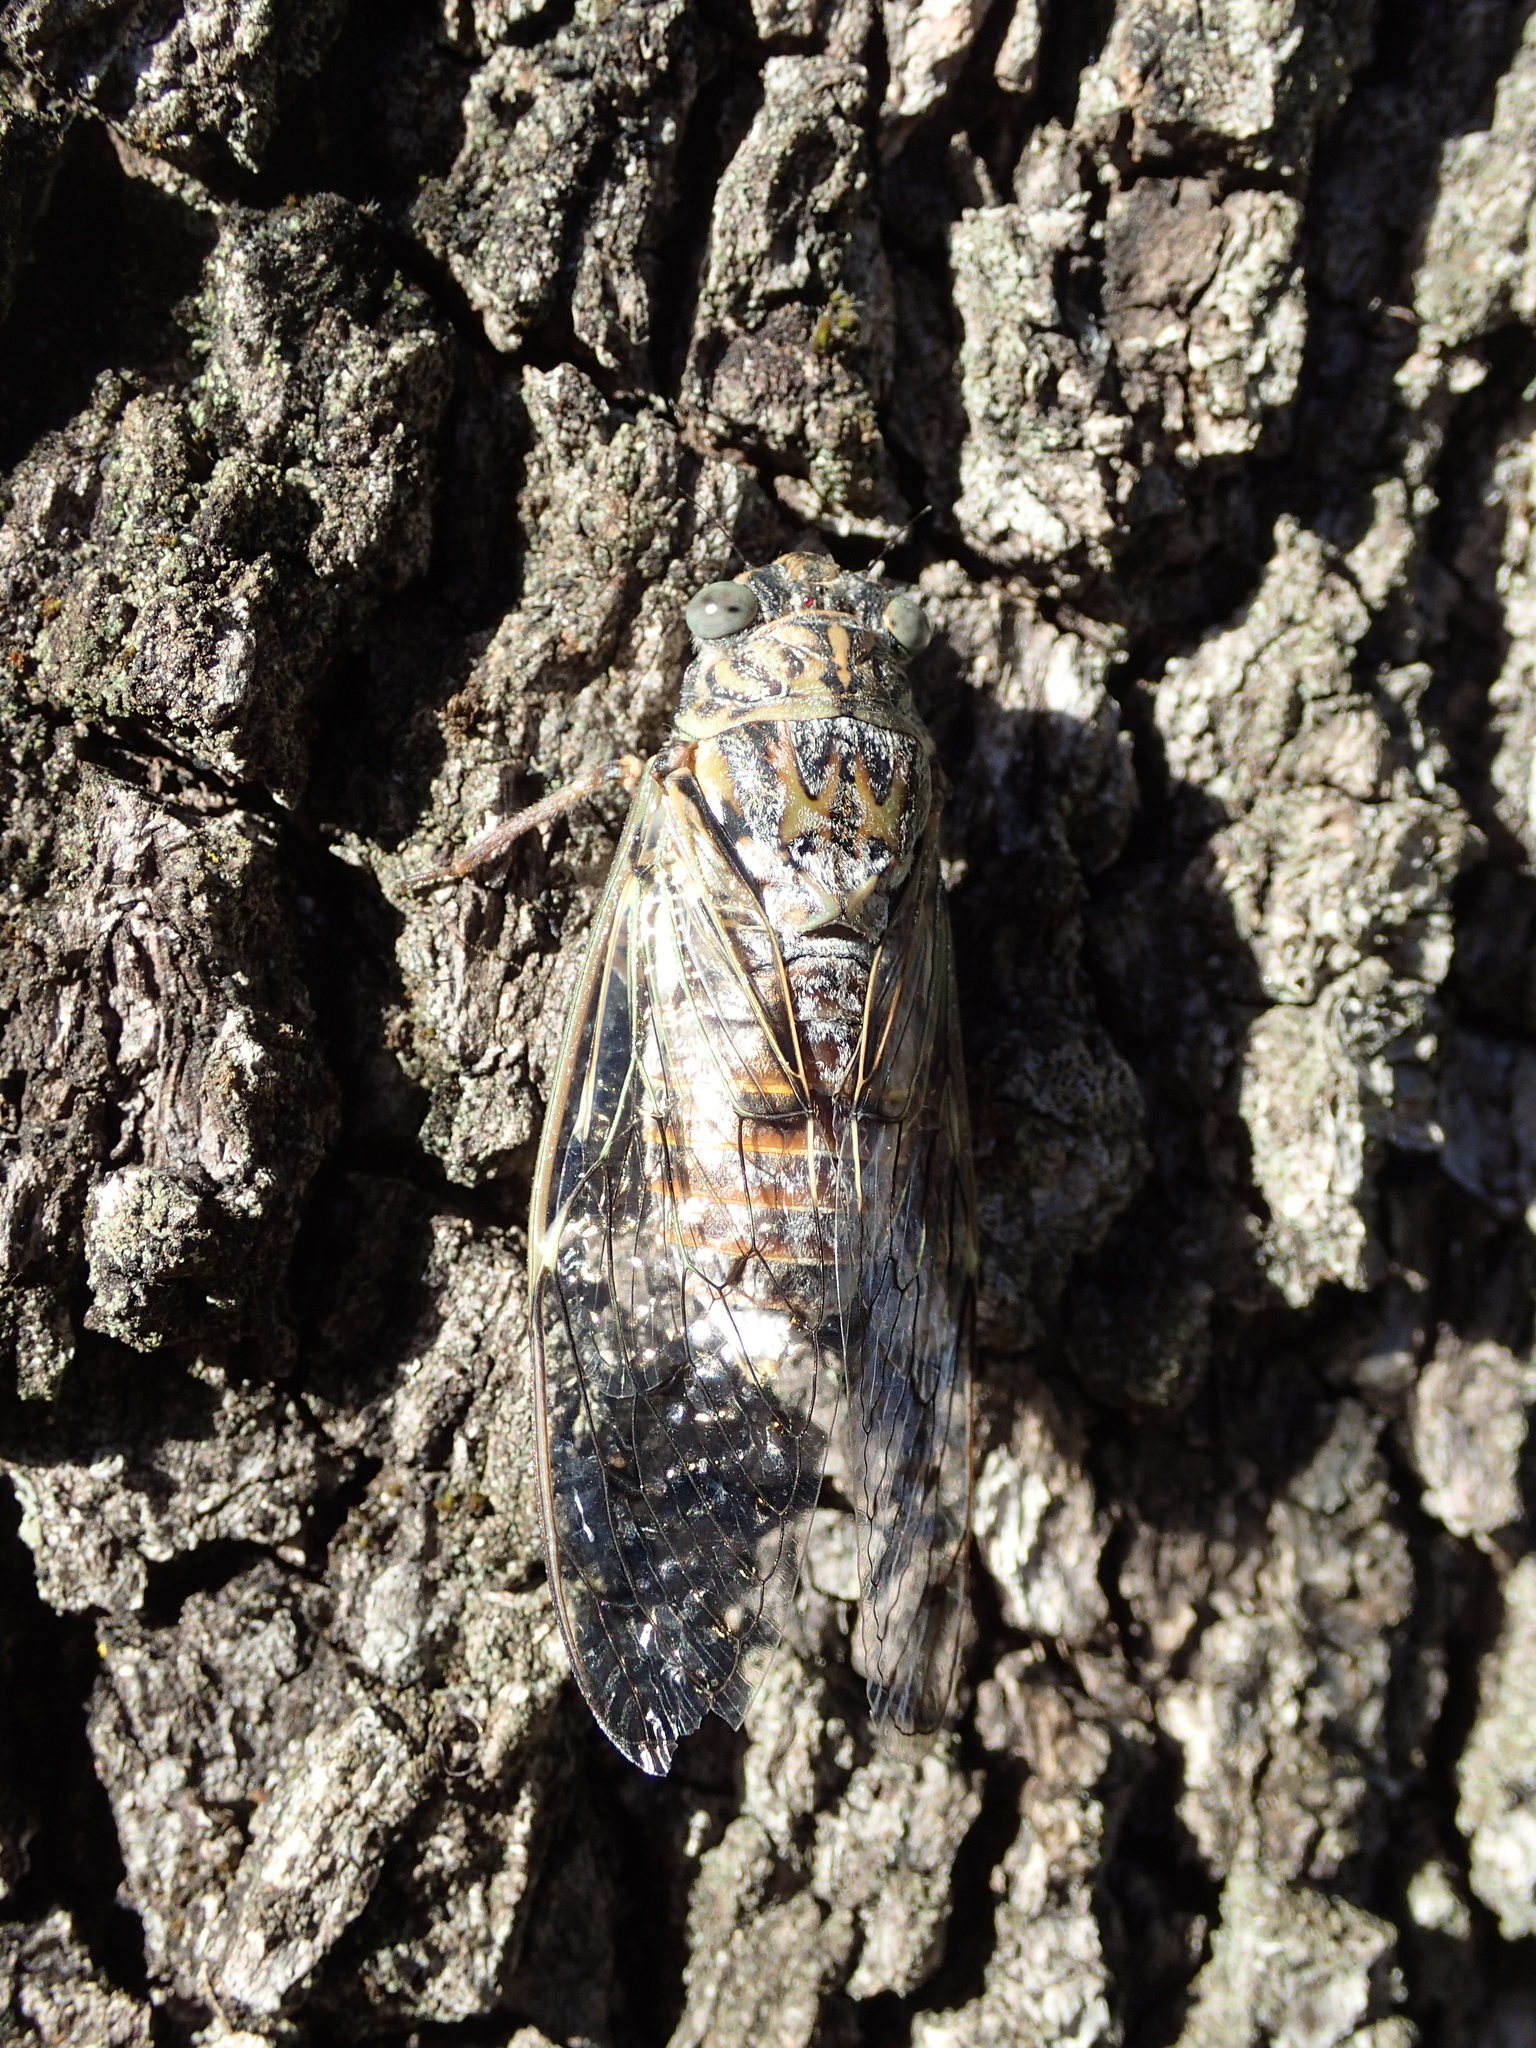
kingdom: Animalia
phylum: Arthropoda
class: Insecta
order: Hemiptera
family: Cicadidae
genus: Cicada
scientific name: Cicada orni
